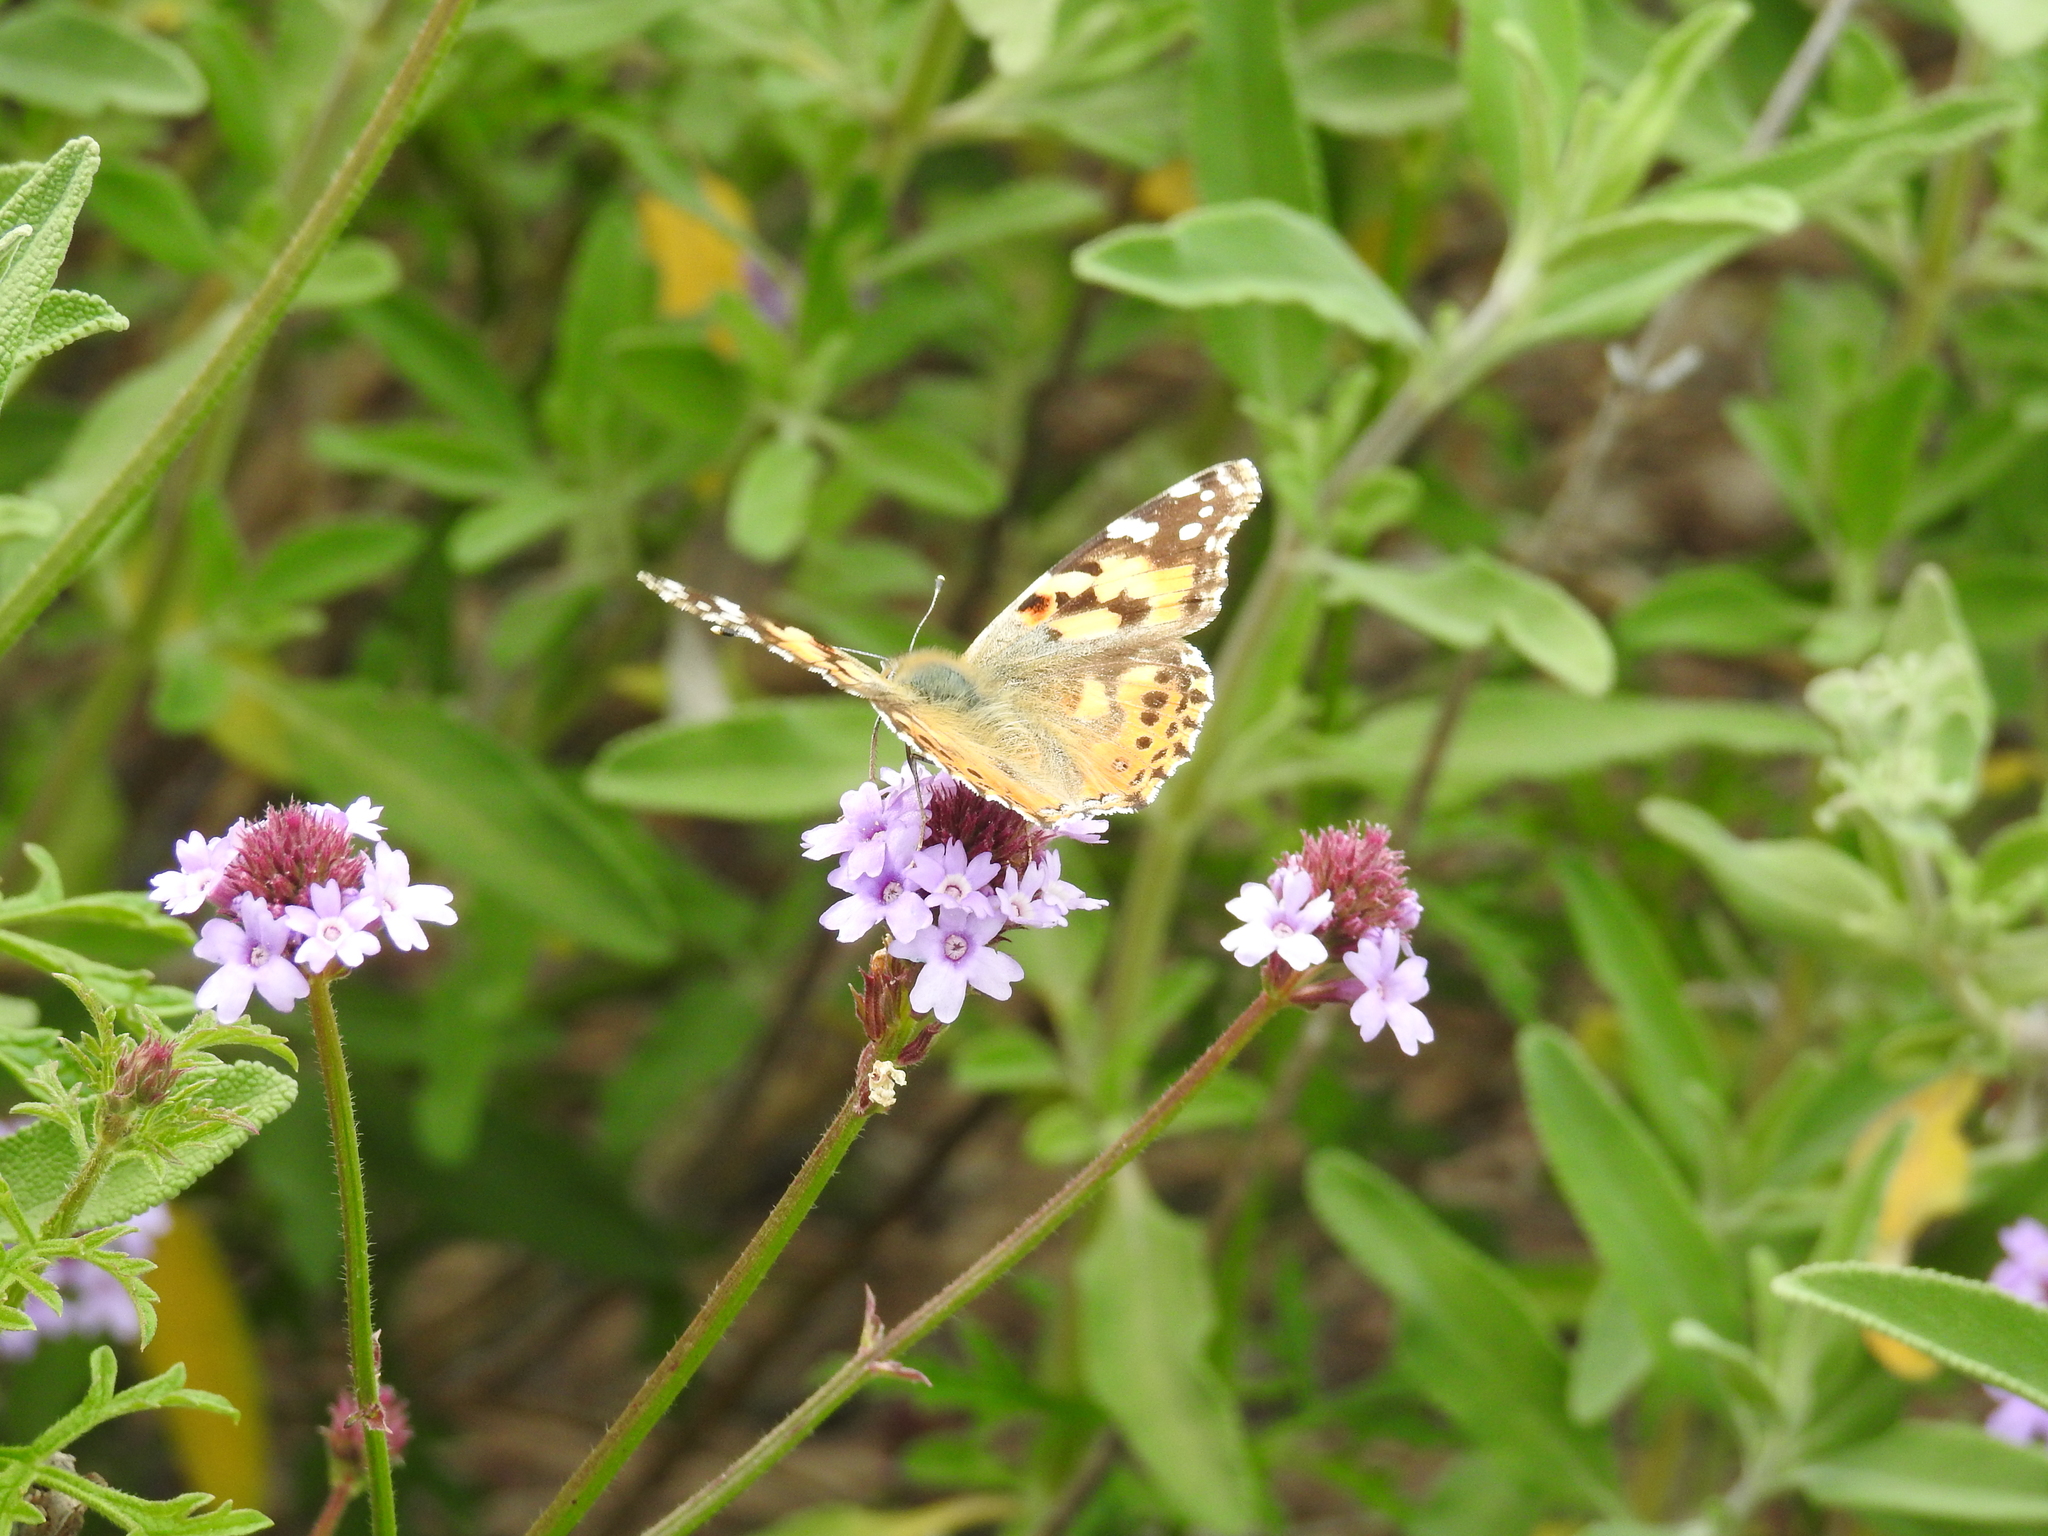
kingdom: Animalia
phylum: Arthropoda
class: Insecta
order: Lepidoptera
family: Nymphalidae
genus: Vanessa
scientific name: Vanessa cardui
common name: Painted lady
